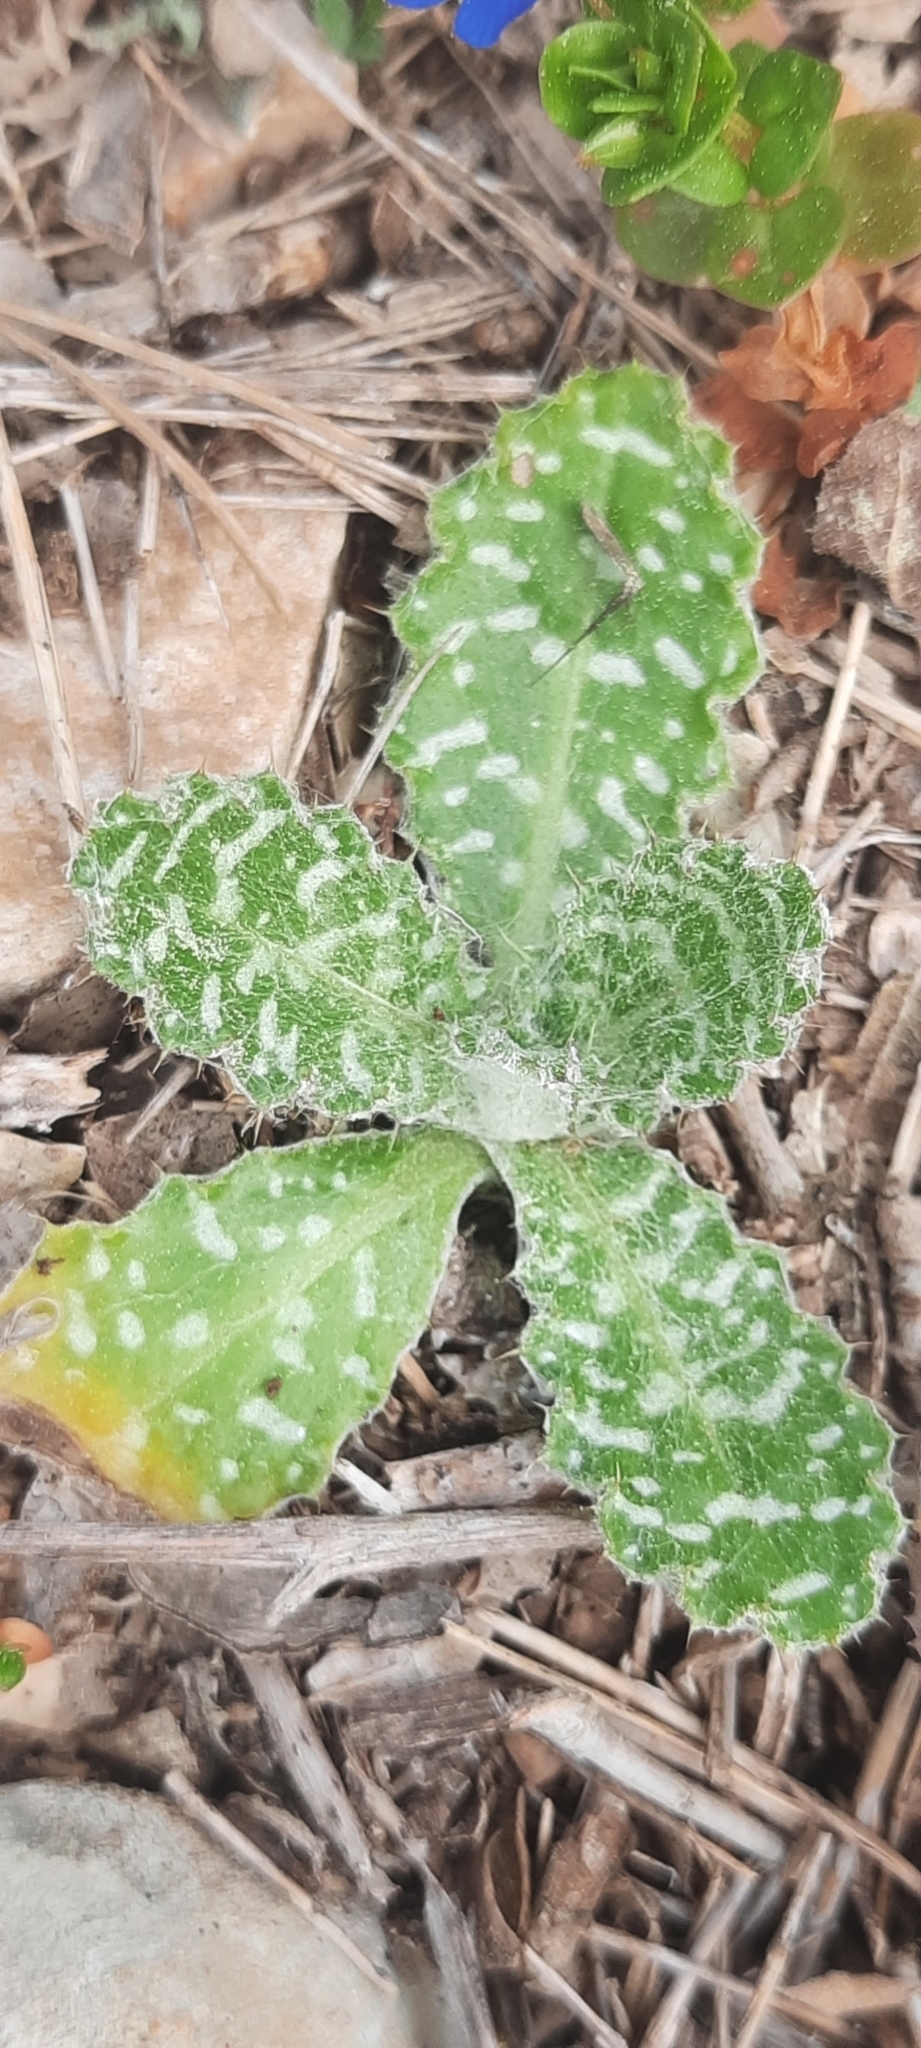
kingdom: Plantae
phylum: Tracheophyta
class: Magnoliopsida
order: Asterales
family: Asteraceae
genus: Tyrimnus
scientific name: Tyrimnus leucographus
